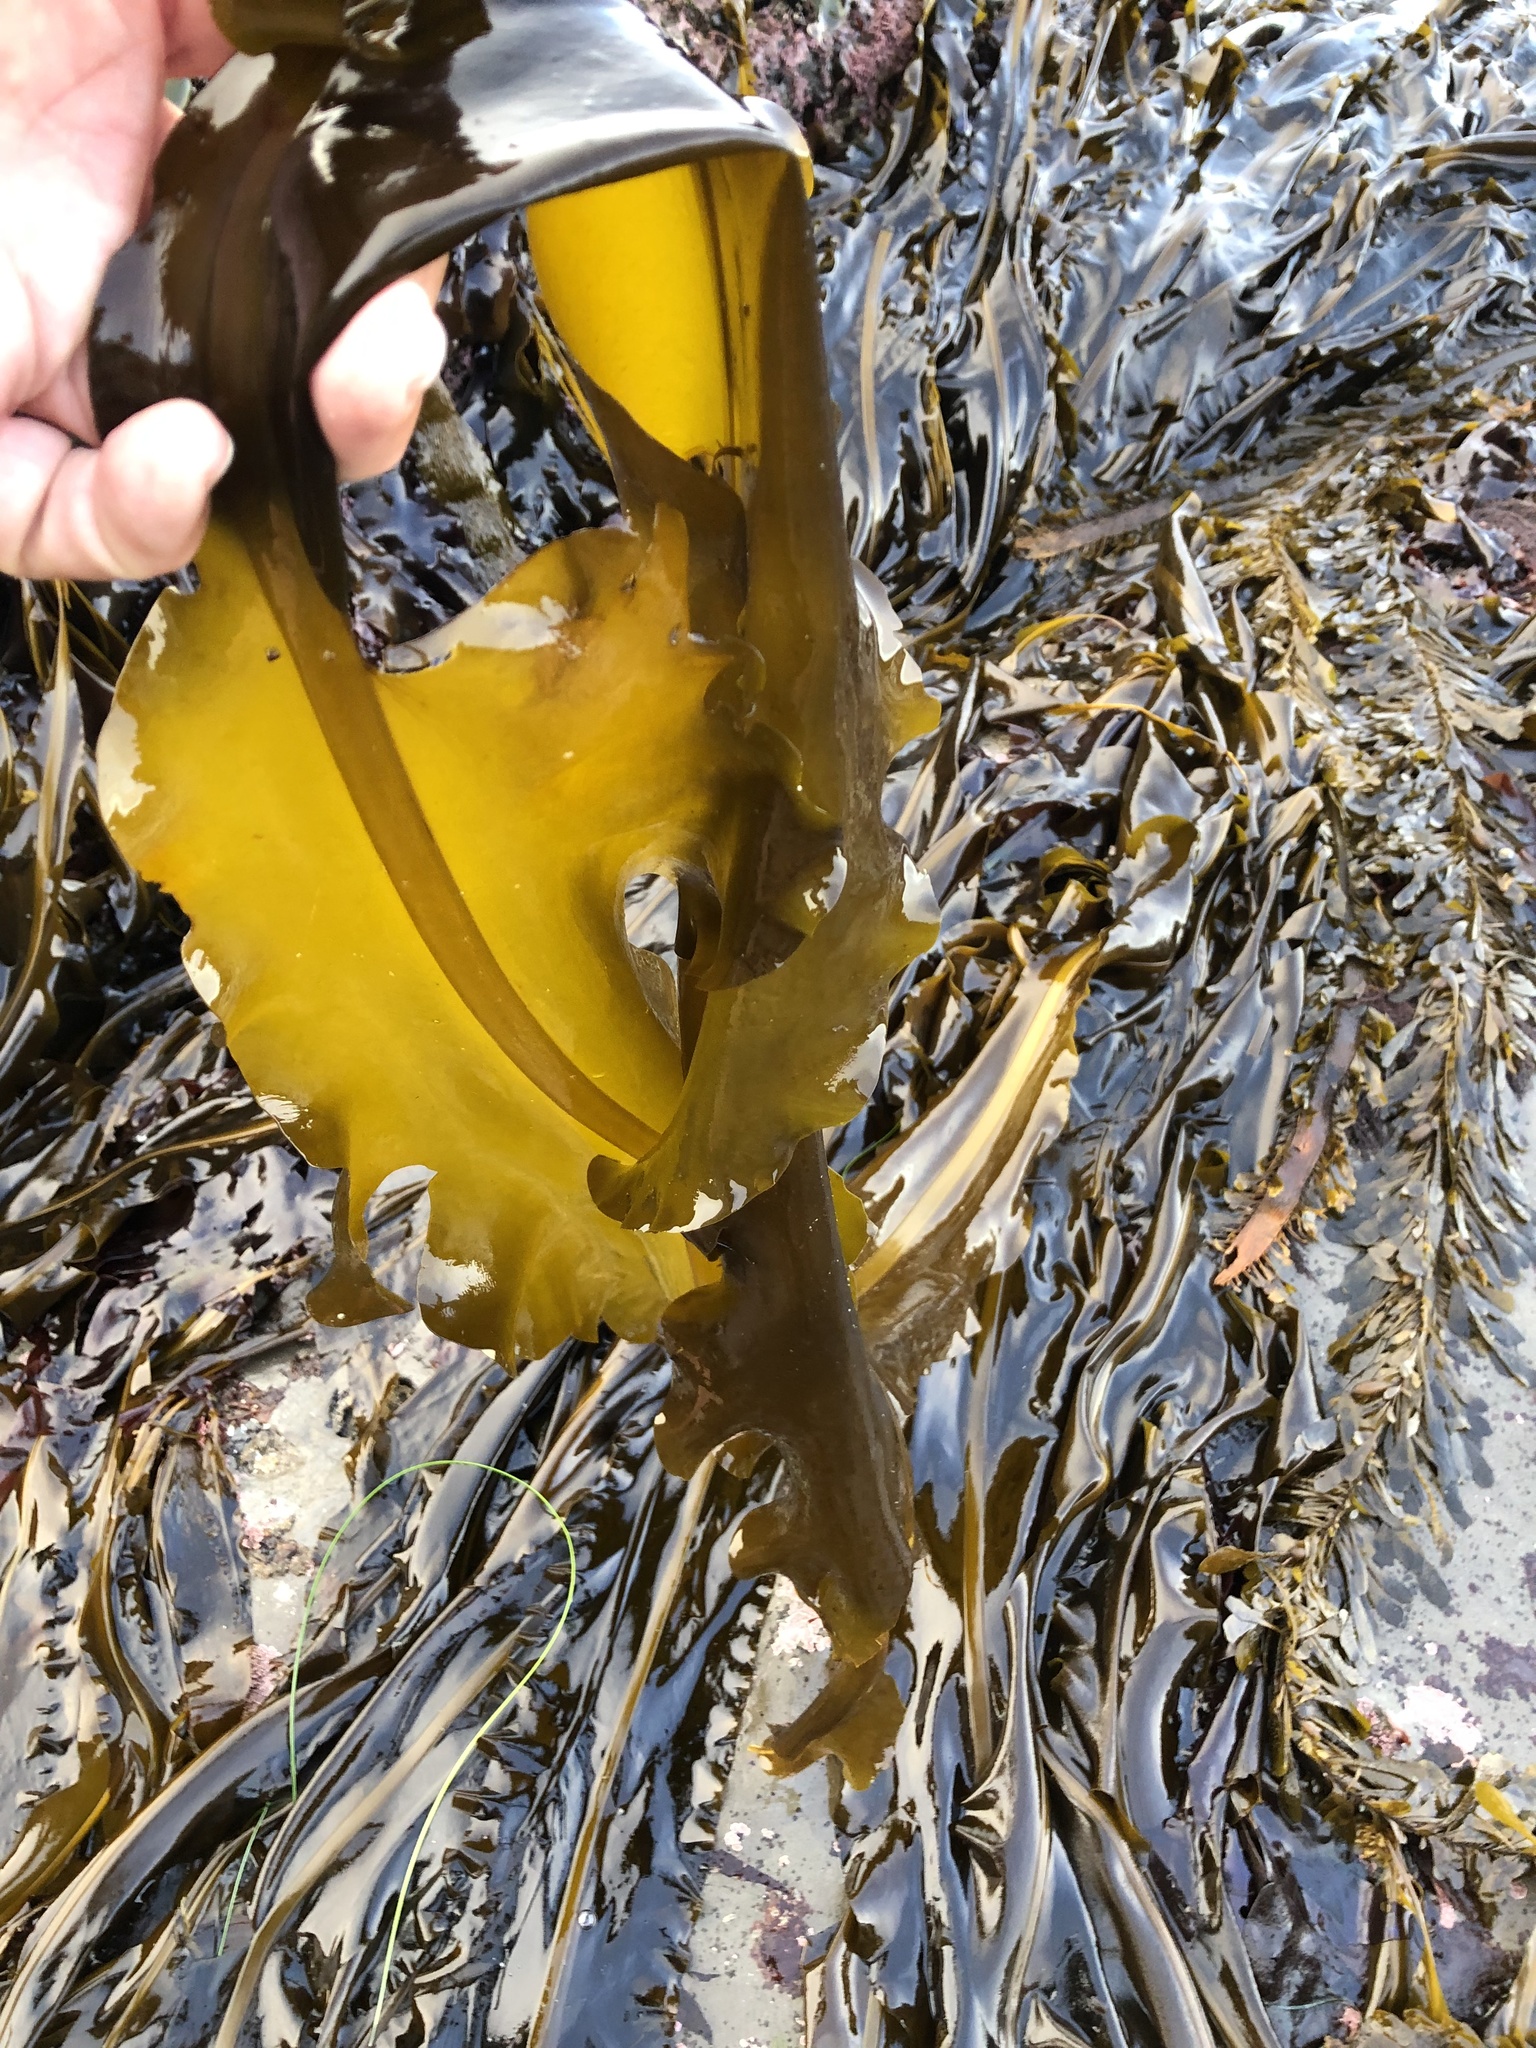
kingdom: Chromista
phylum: Ochrophyta
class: Phaeophyceae
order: Laminariales
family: Alariaceae
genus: Alaria
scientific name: Alaria marginata
